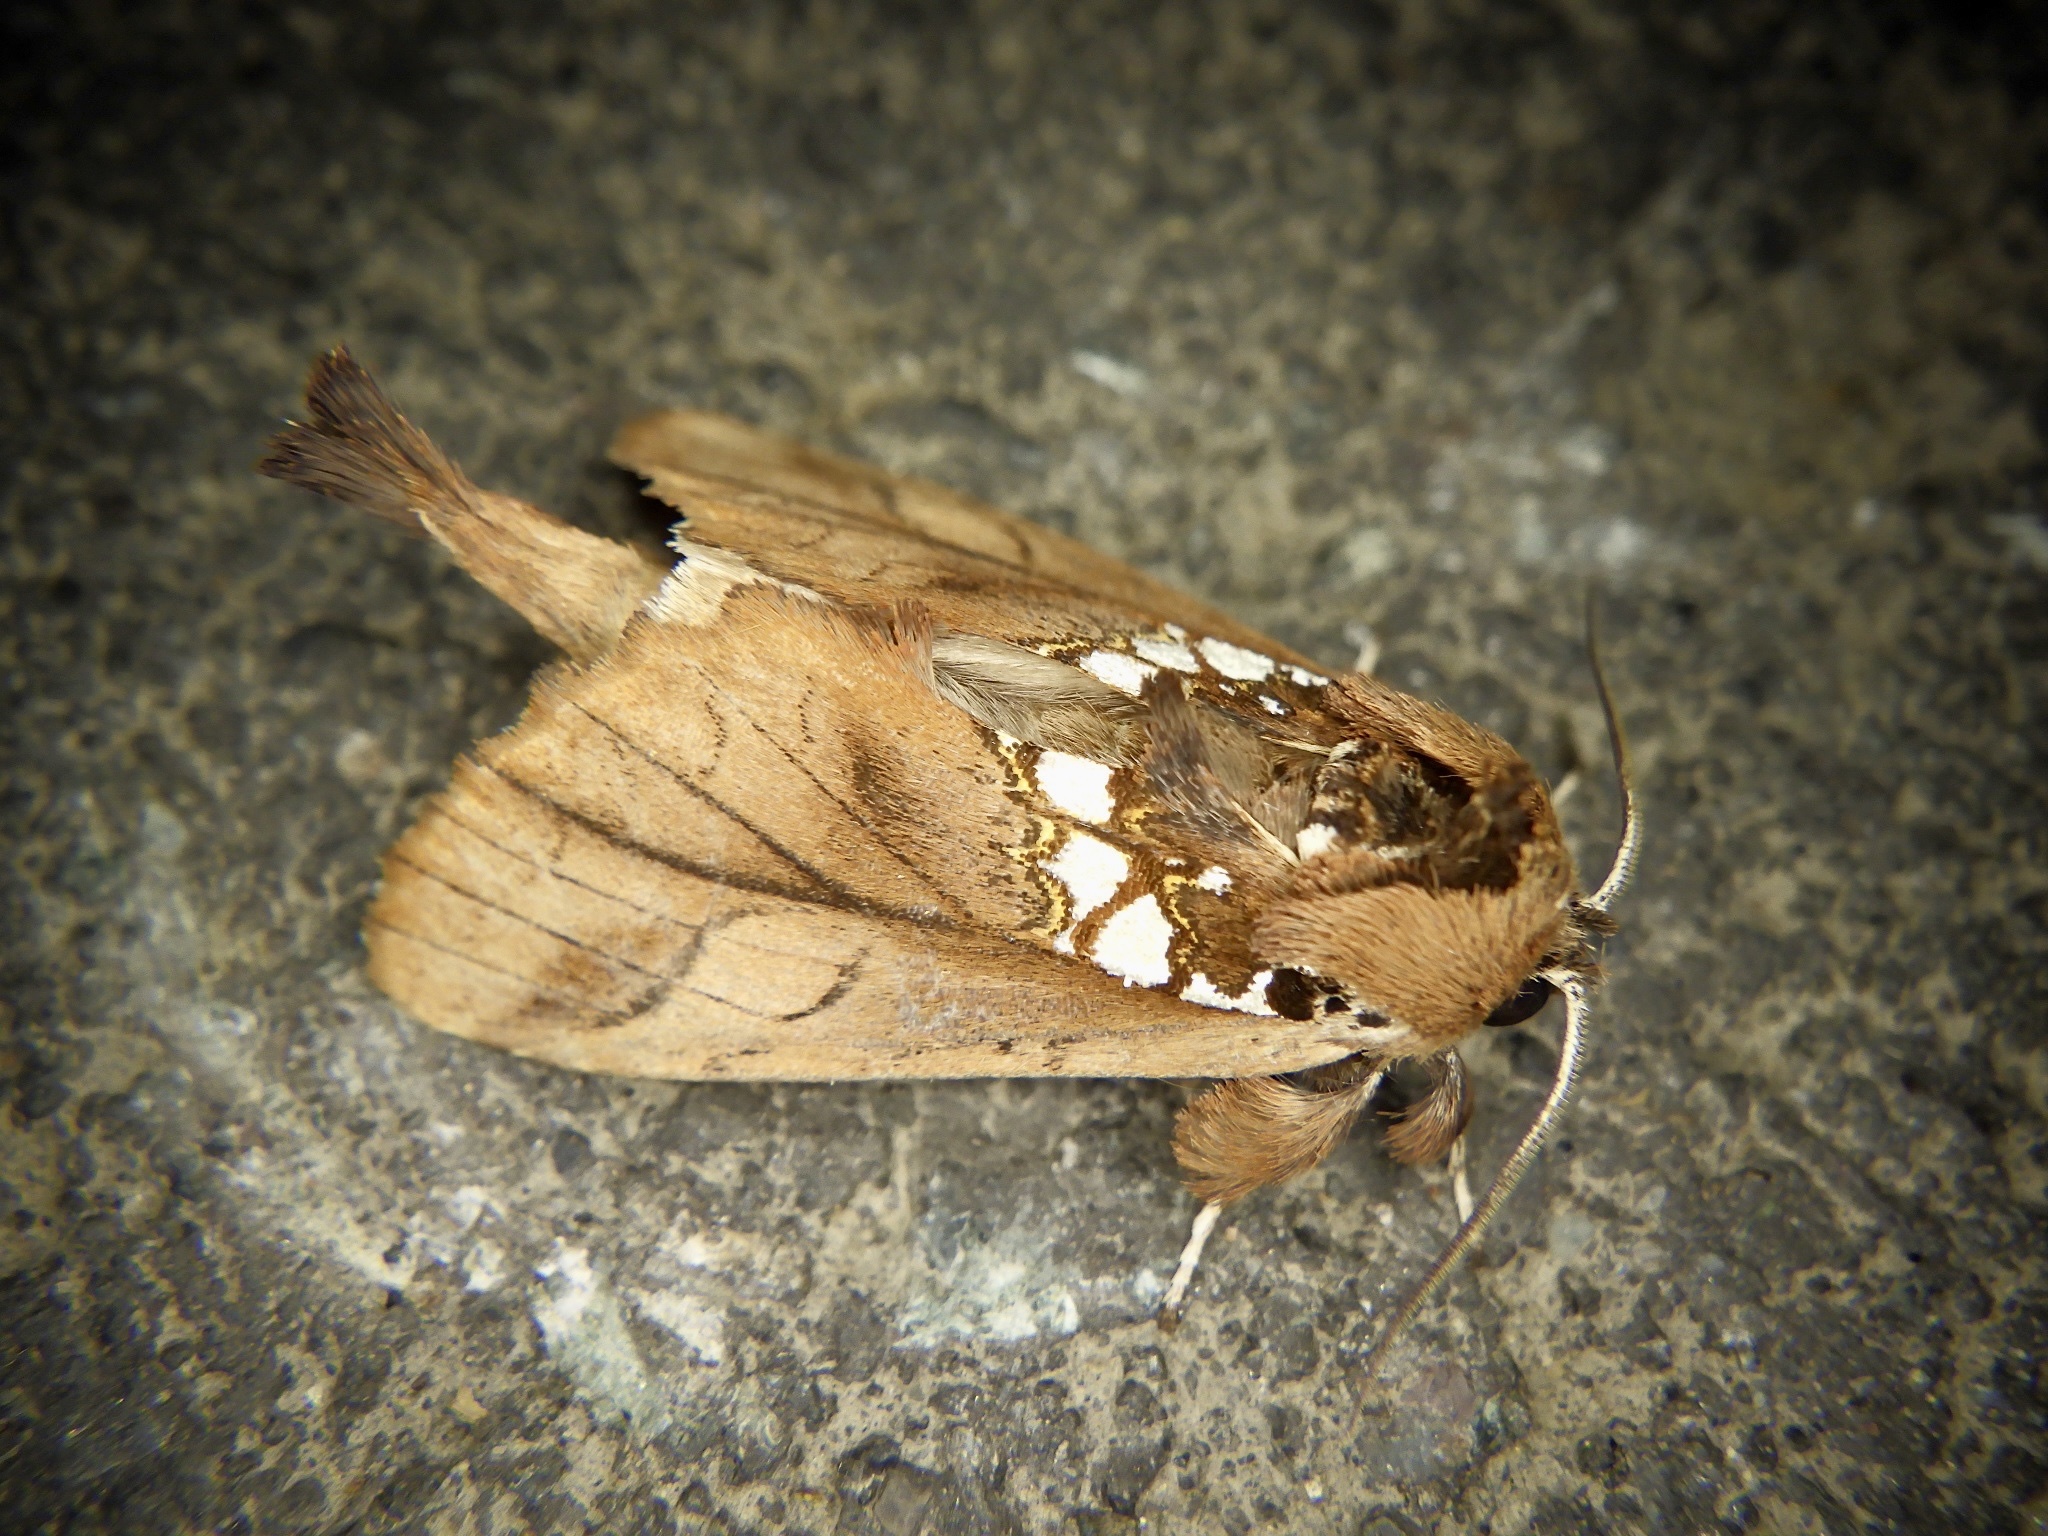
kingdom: Animalia
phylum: Arthropoda
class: Insecta
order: Lepidoptera
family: Notodontidae
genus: Spatalia
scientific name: Spatalia dives
